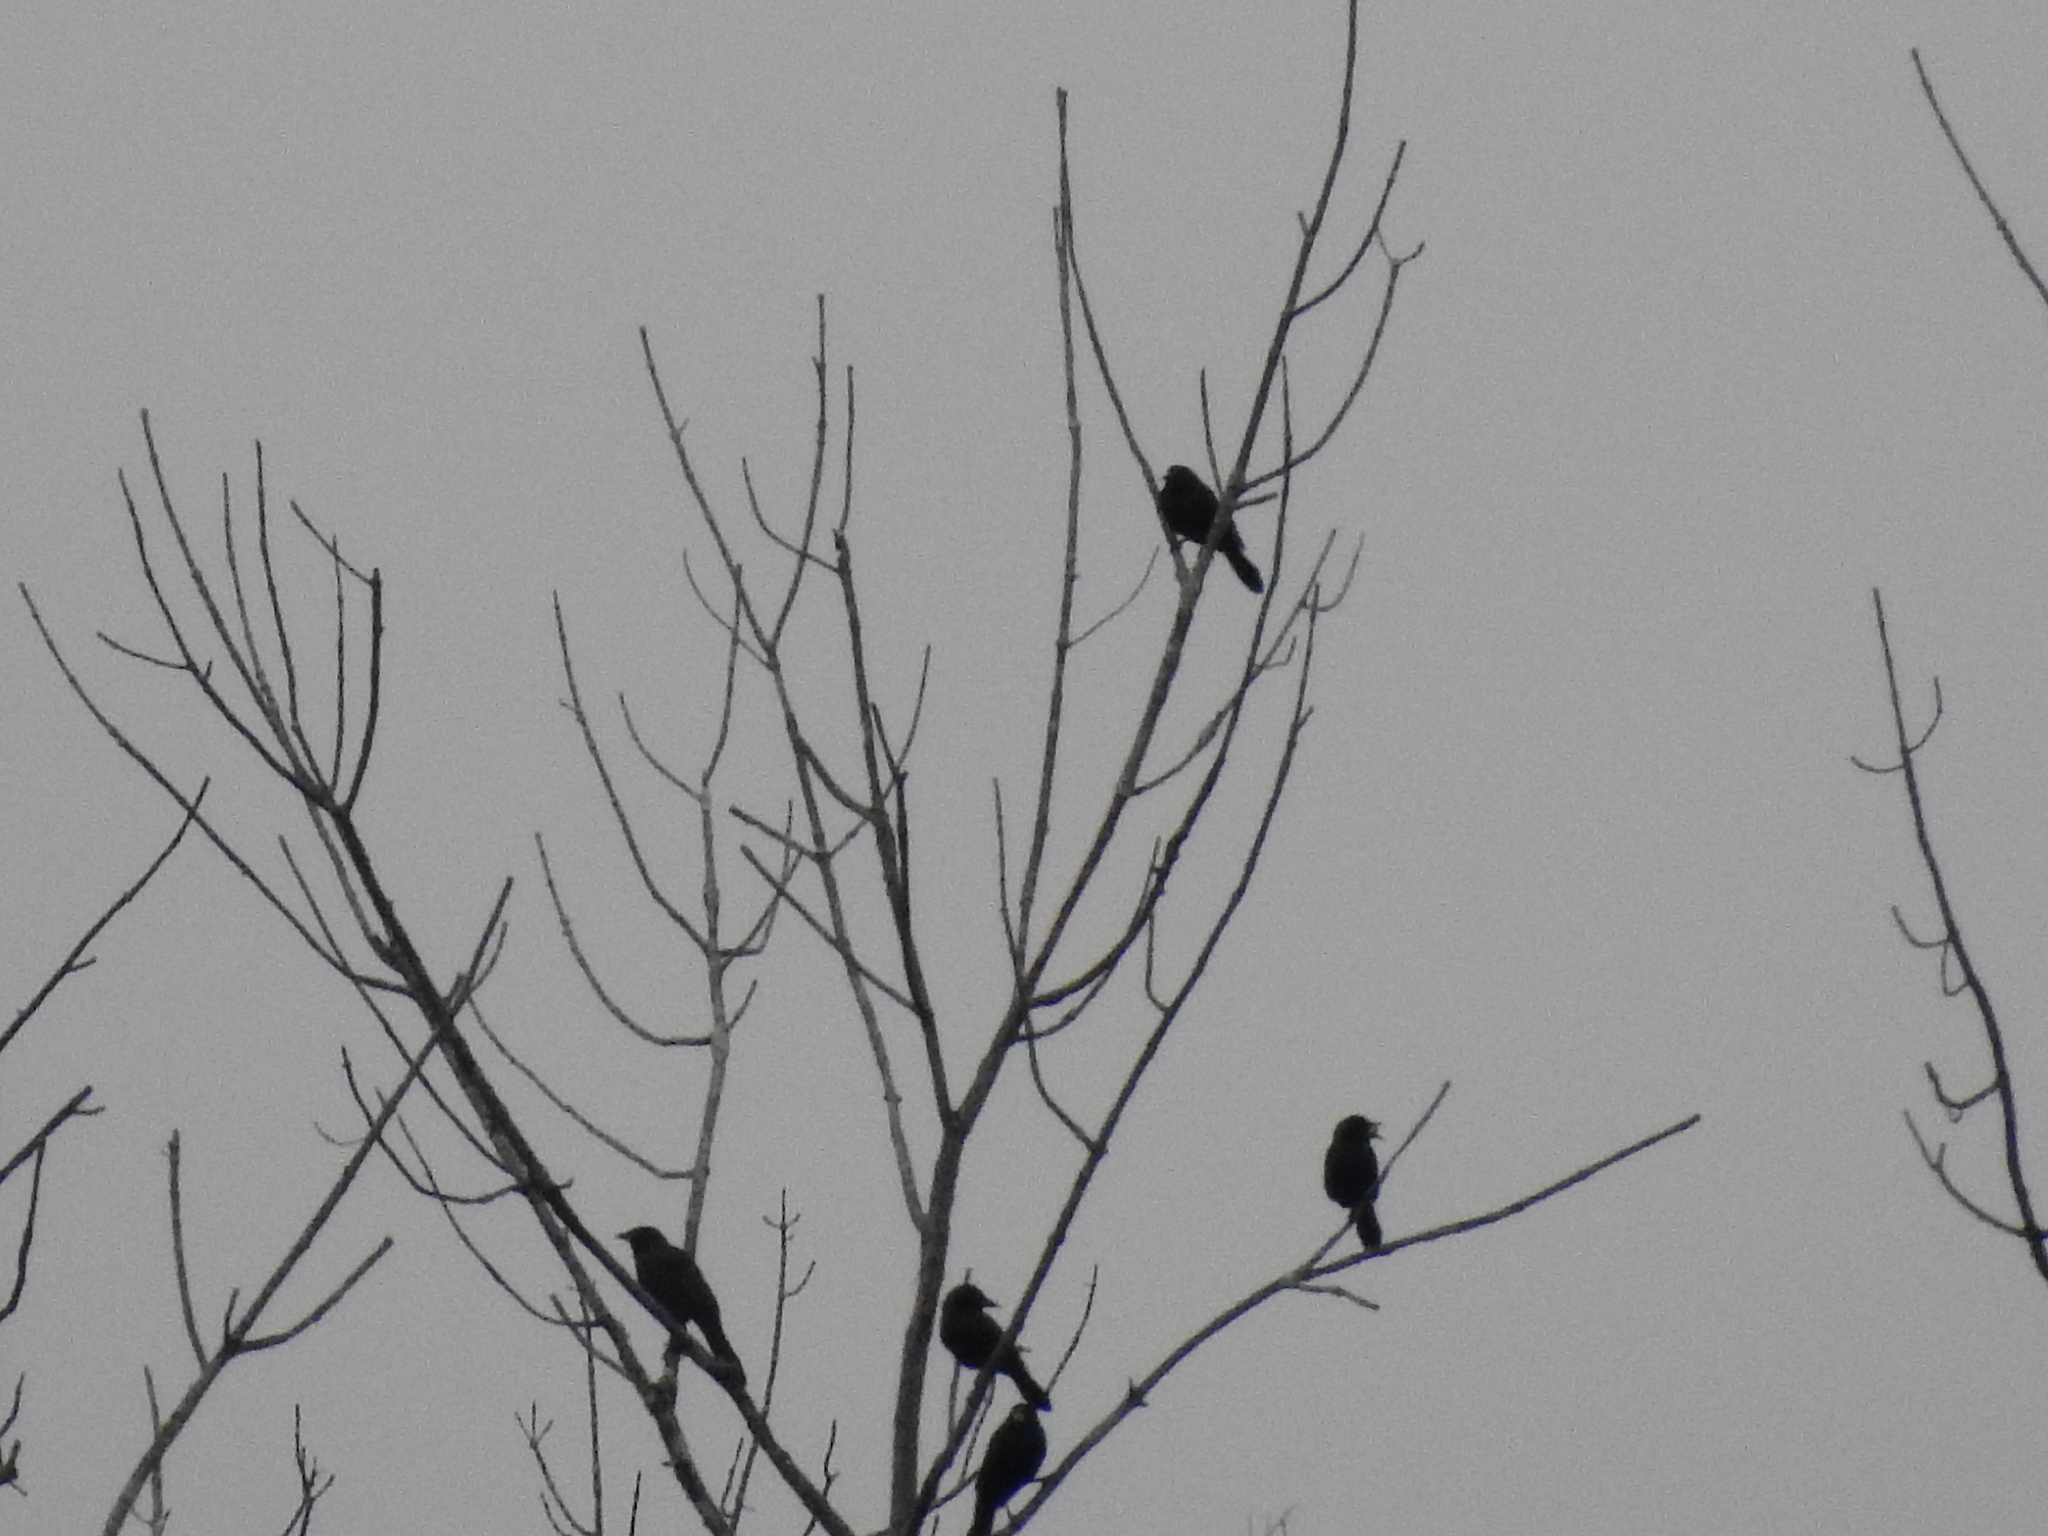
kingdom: Animalia
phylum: Chordata
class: Aves
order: Passeriformes
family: Icteridae
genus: Quiscalus
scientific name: Quiscalus quiscula
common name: Common grackle
